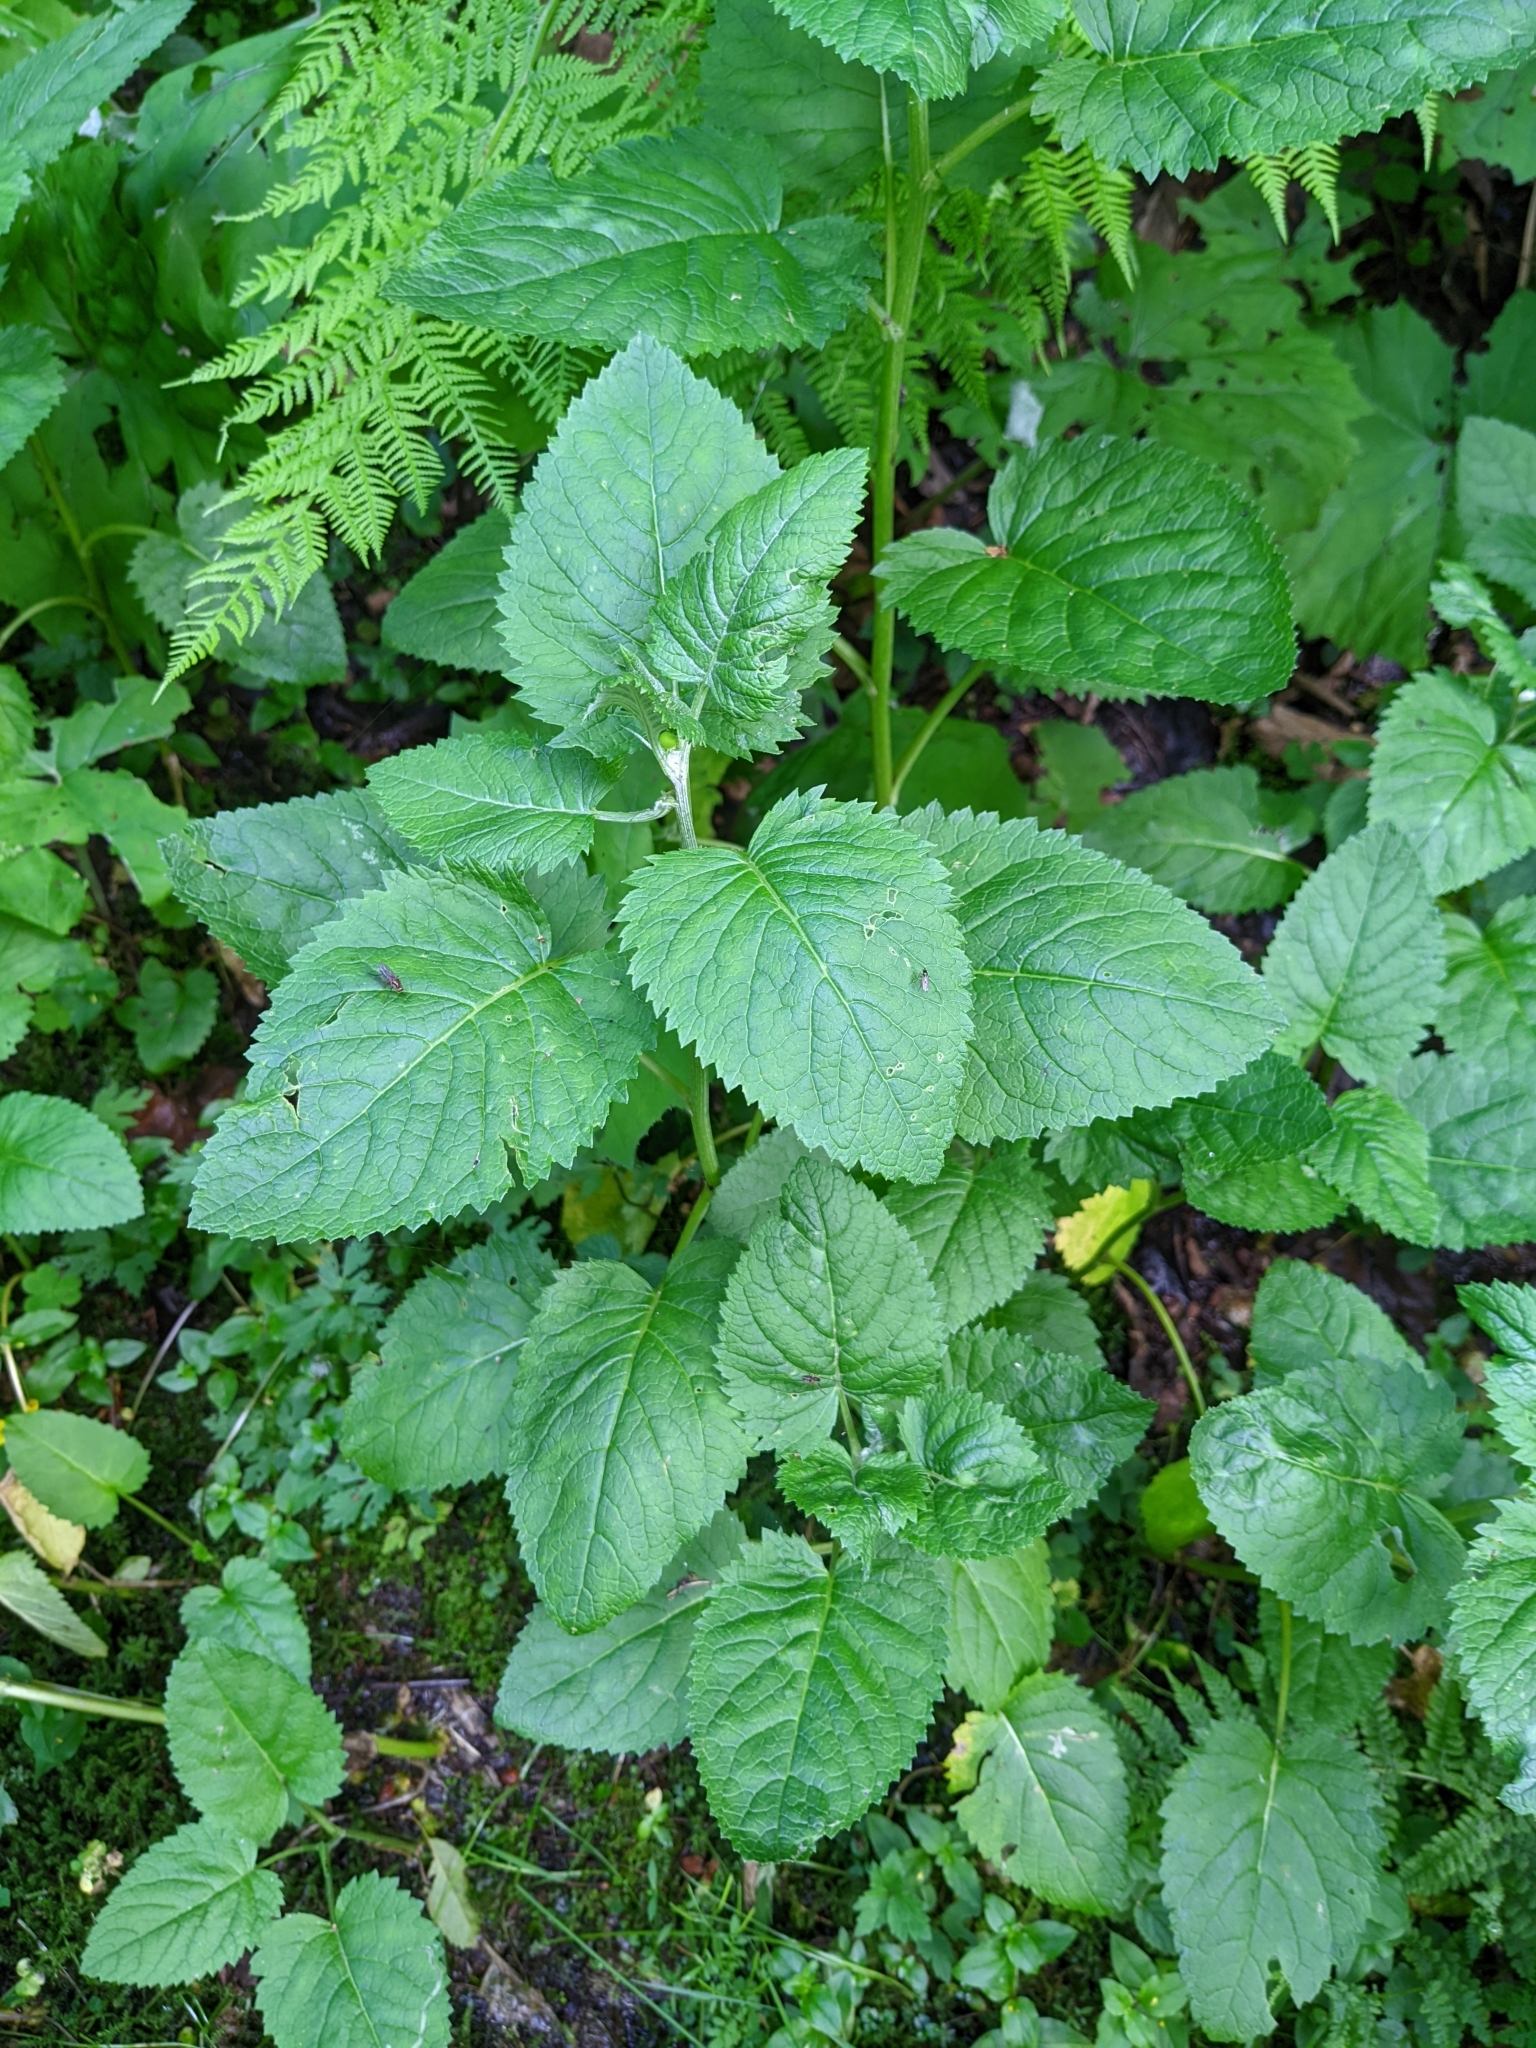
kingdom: Plantae
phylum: Tracheophyta
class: Magnoliopsida
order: Asterales
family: Asteraceae
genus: Jacobaea
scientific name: Jacobaea alpina
